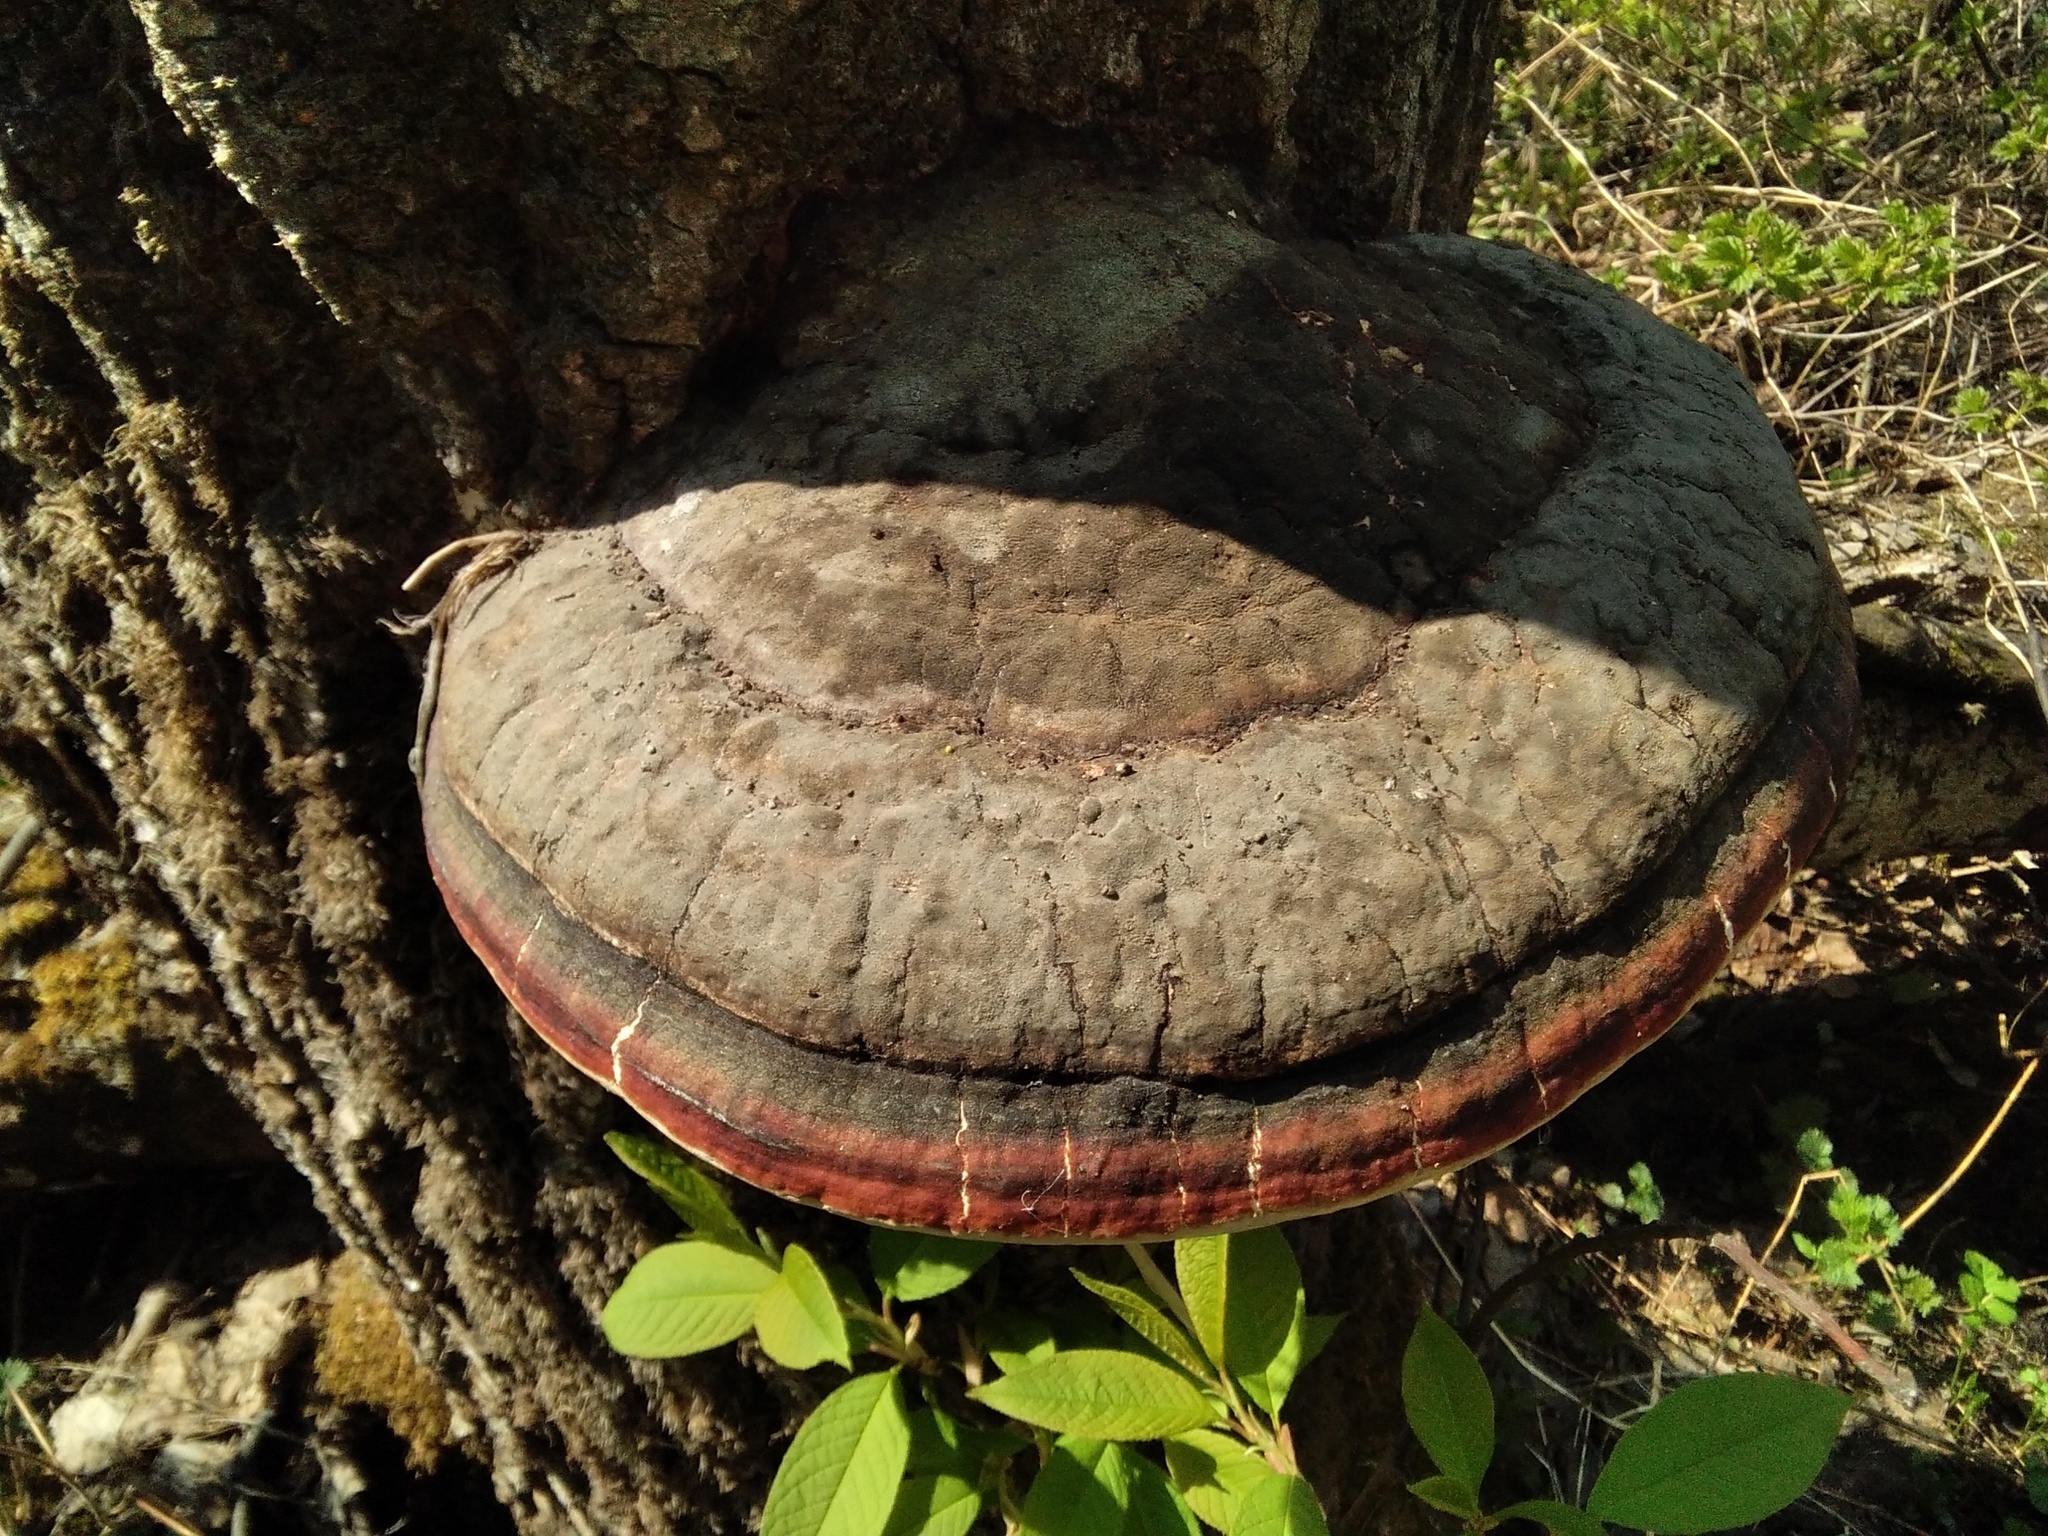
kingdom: Fungi
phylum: Basidiomycota
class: Agaricomycetes
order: Polyporales
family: Fomitopsidaceae
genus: Fomitopsis
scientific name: Fomitopsis pinicola
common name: Red-belted bracket
